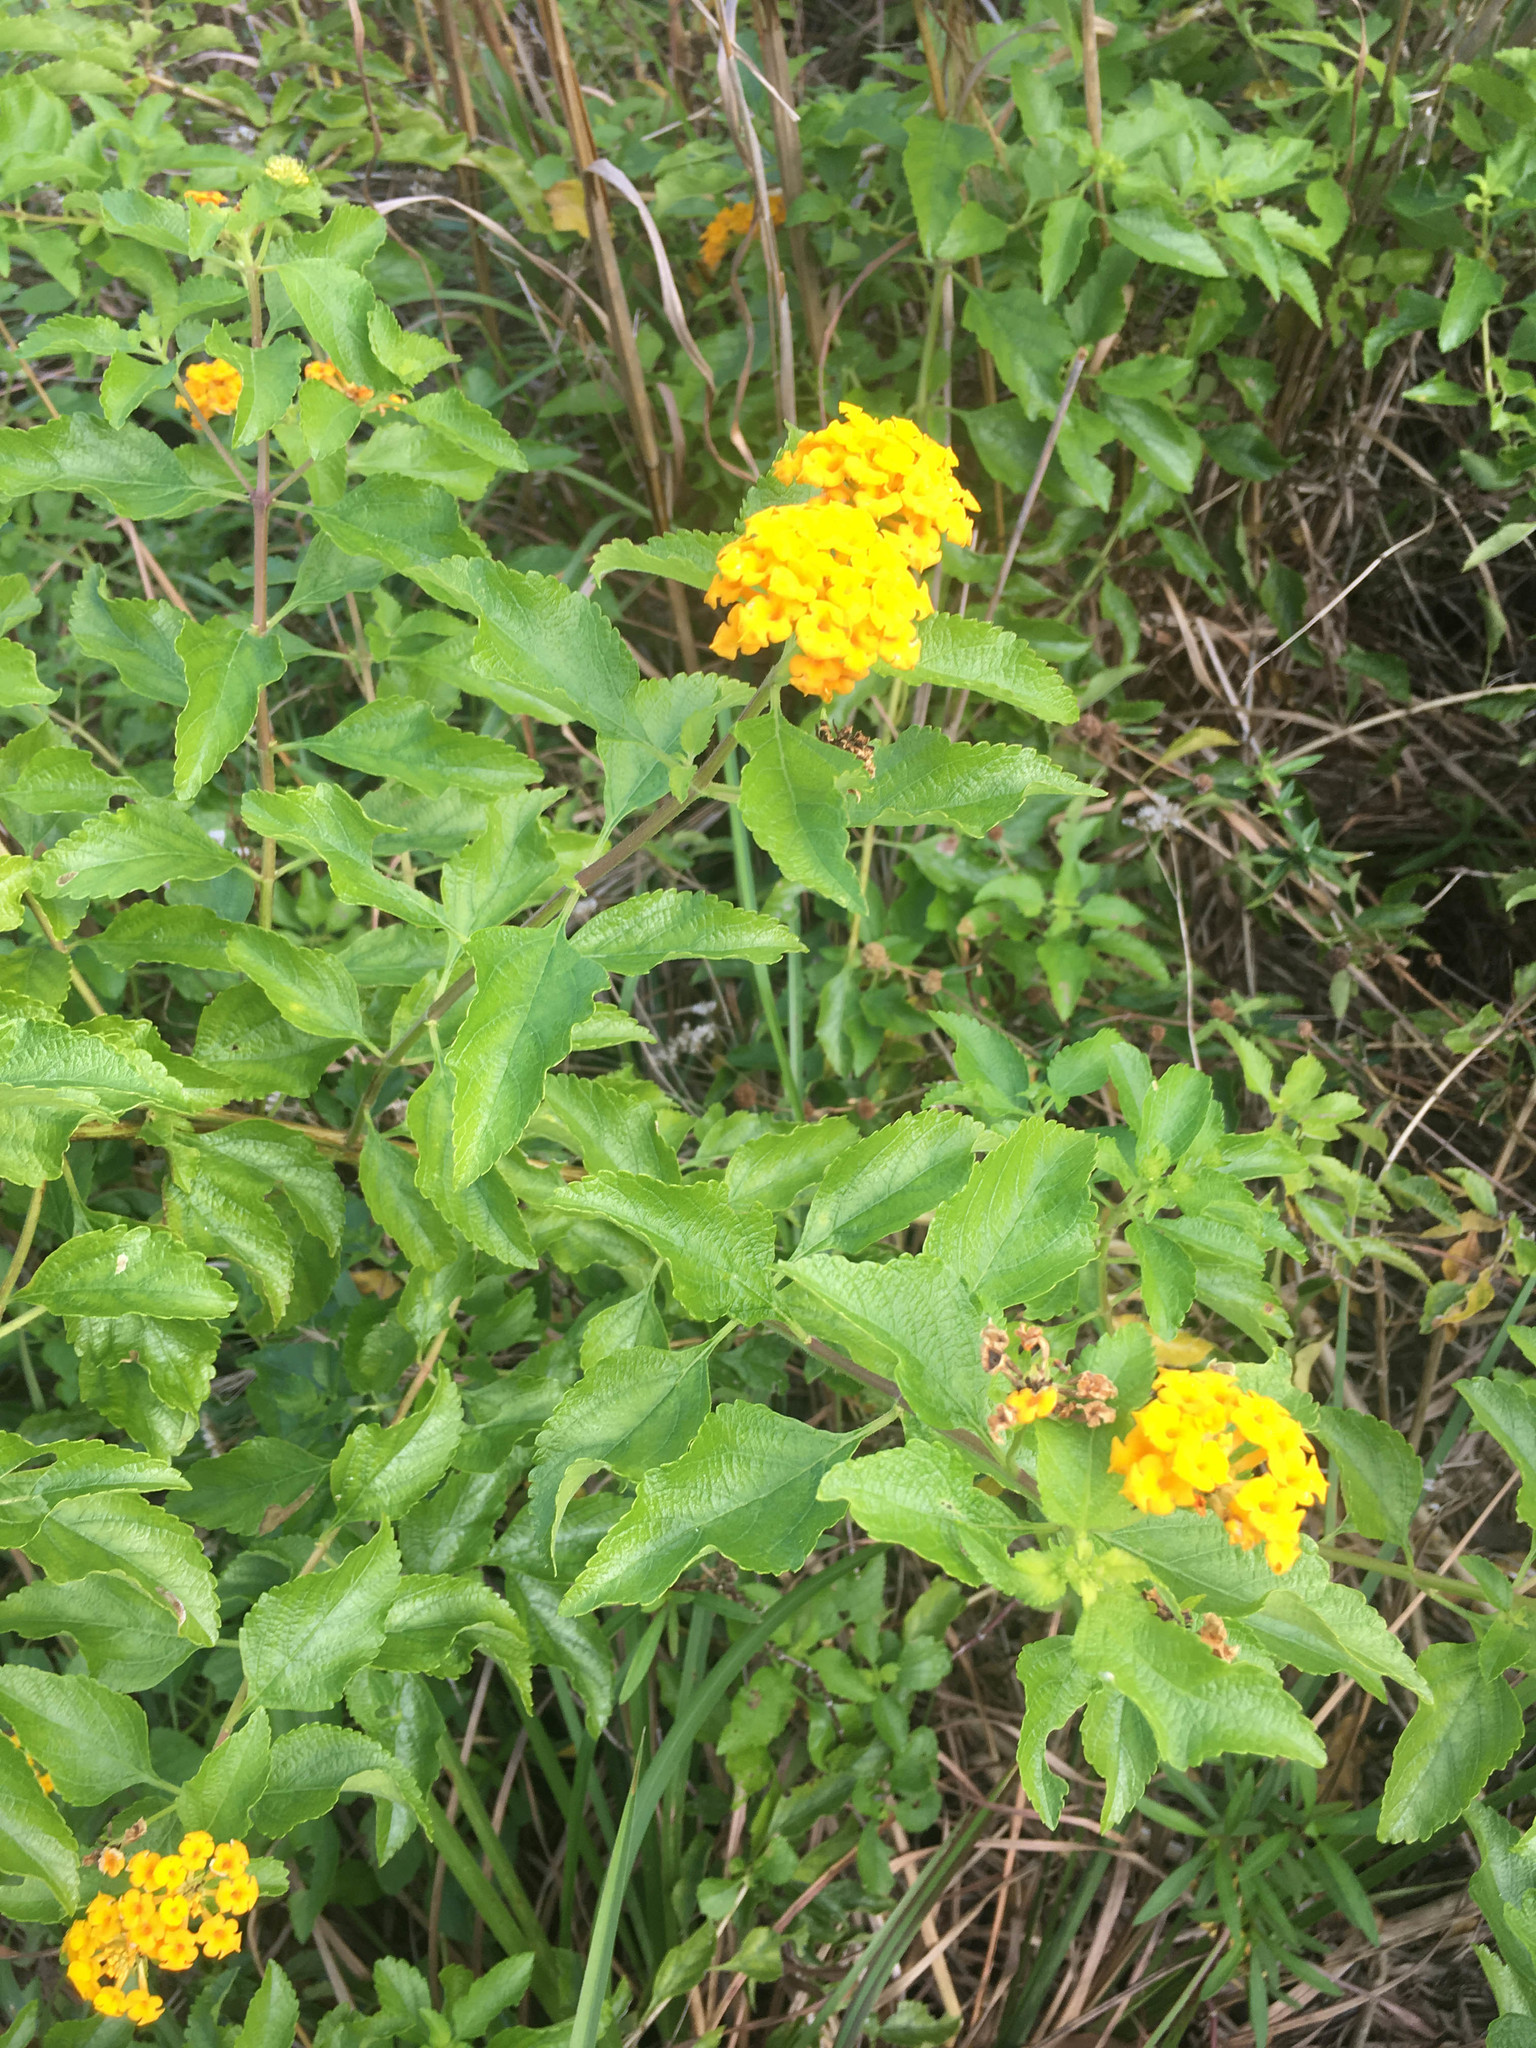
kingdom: Plantae
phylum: Tracheophyta
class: Magnoliopsida
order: Lamiales
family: Verbenaceae
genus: Lantana
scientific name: Lantana camara
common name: Lantana
